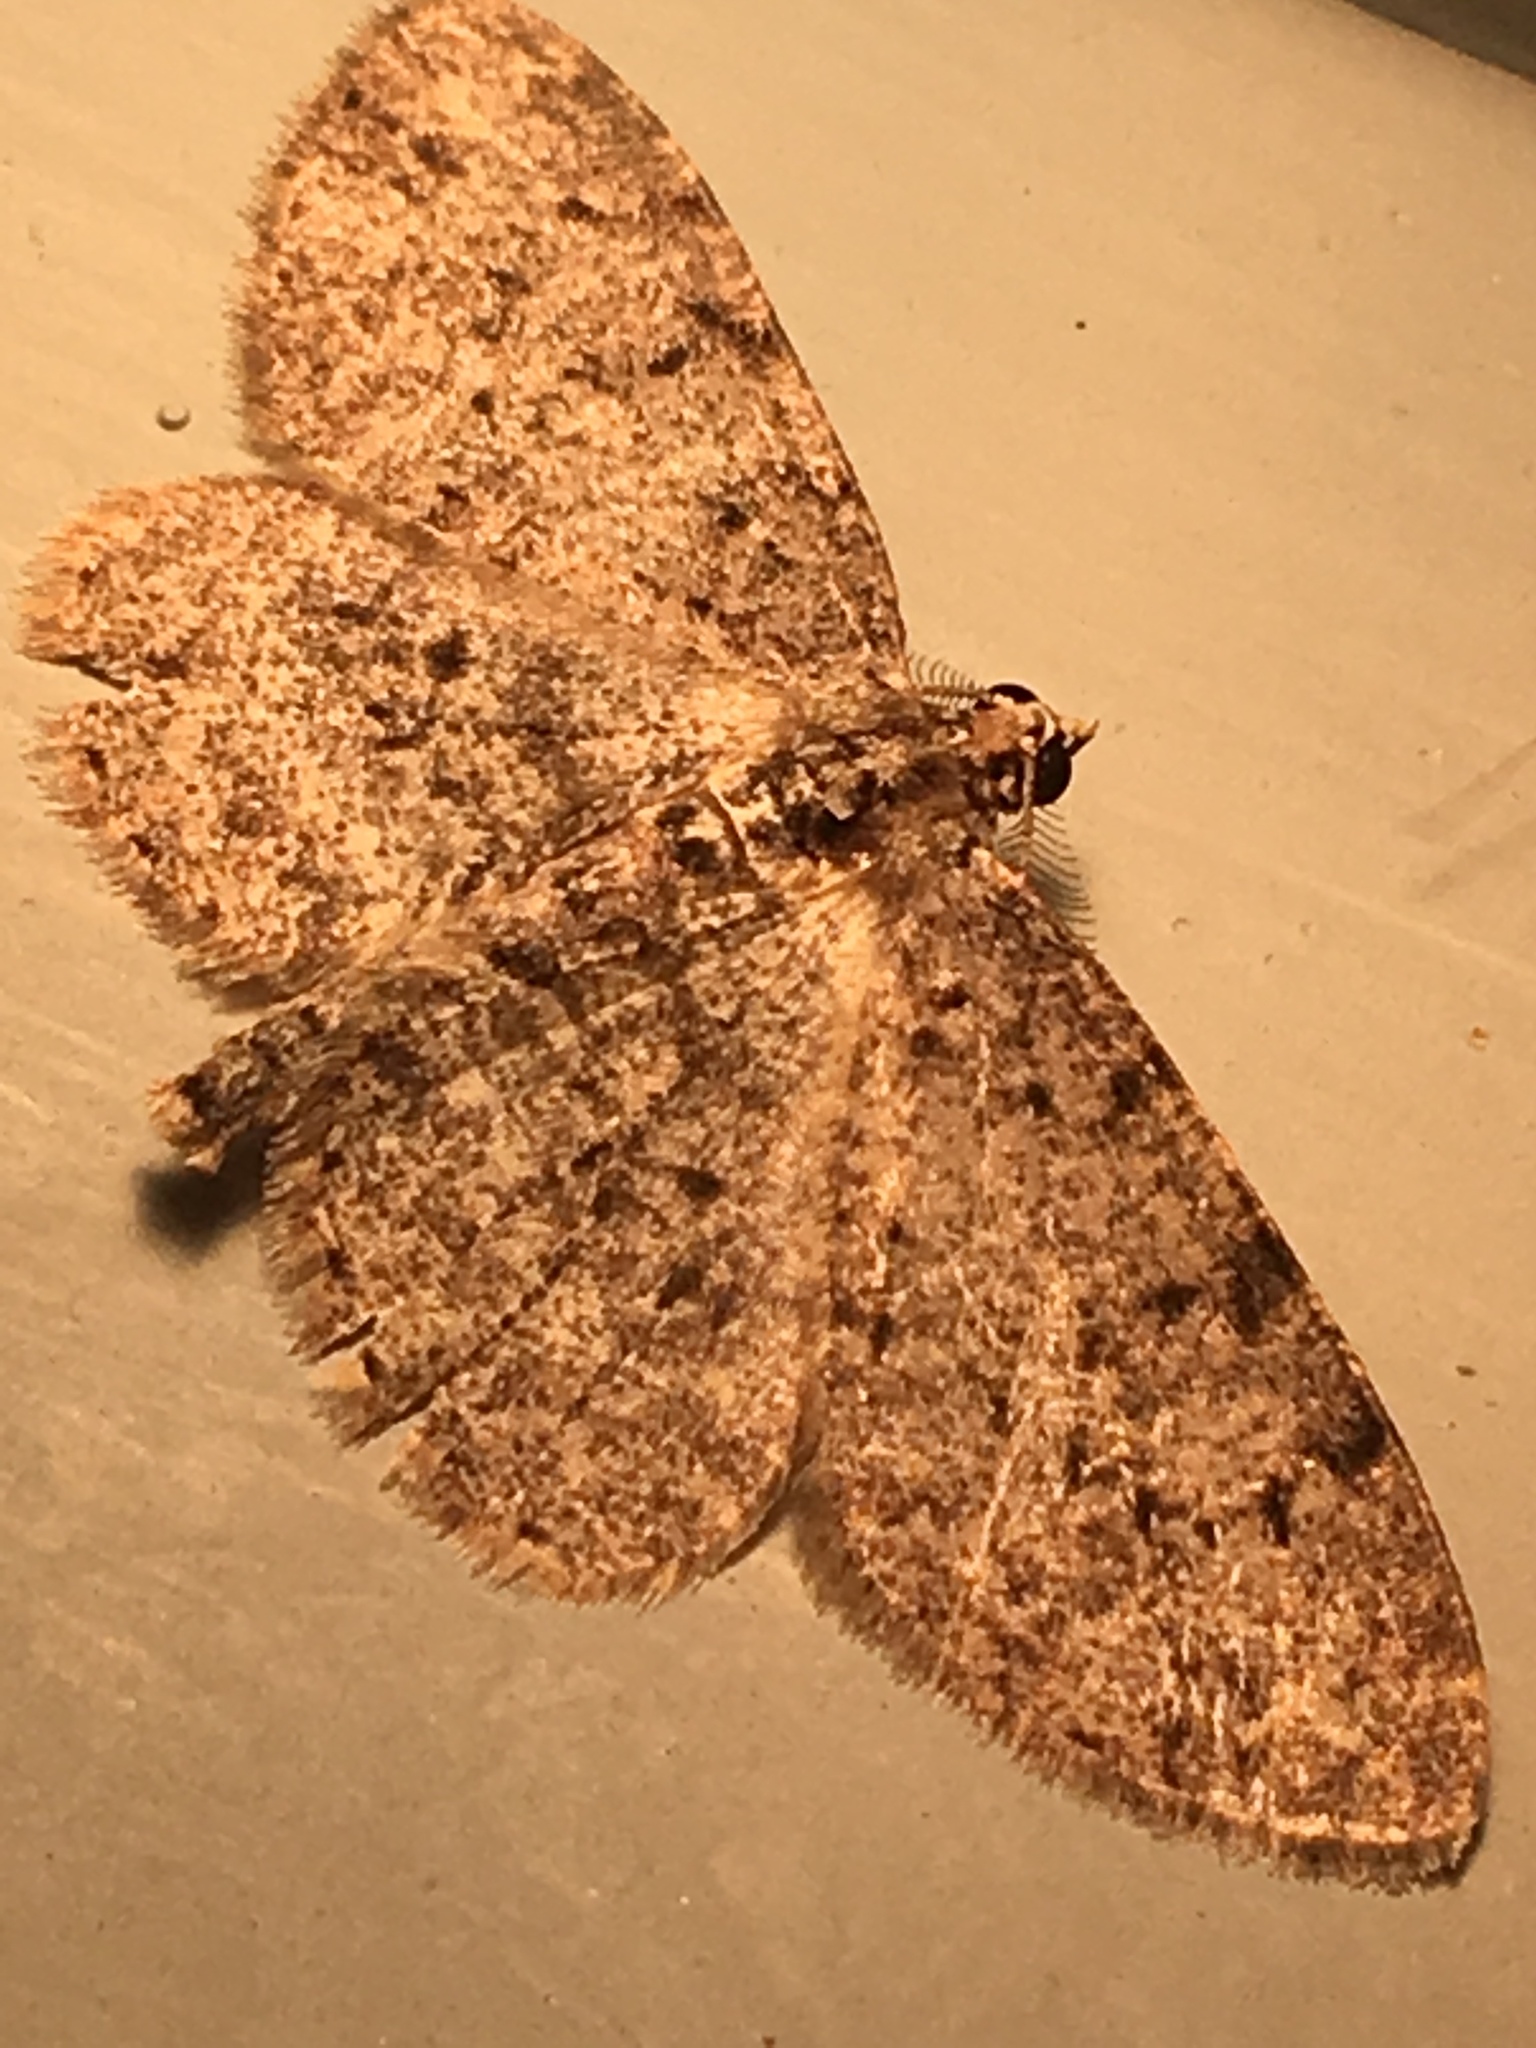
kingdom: Animalia
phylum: Arthropoda
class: Insecta
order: Lepidoptera
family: Geometridae
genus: Protoboarmia
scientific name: Protoboarmia porcelaria
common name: Porcelain gray
